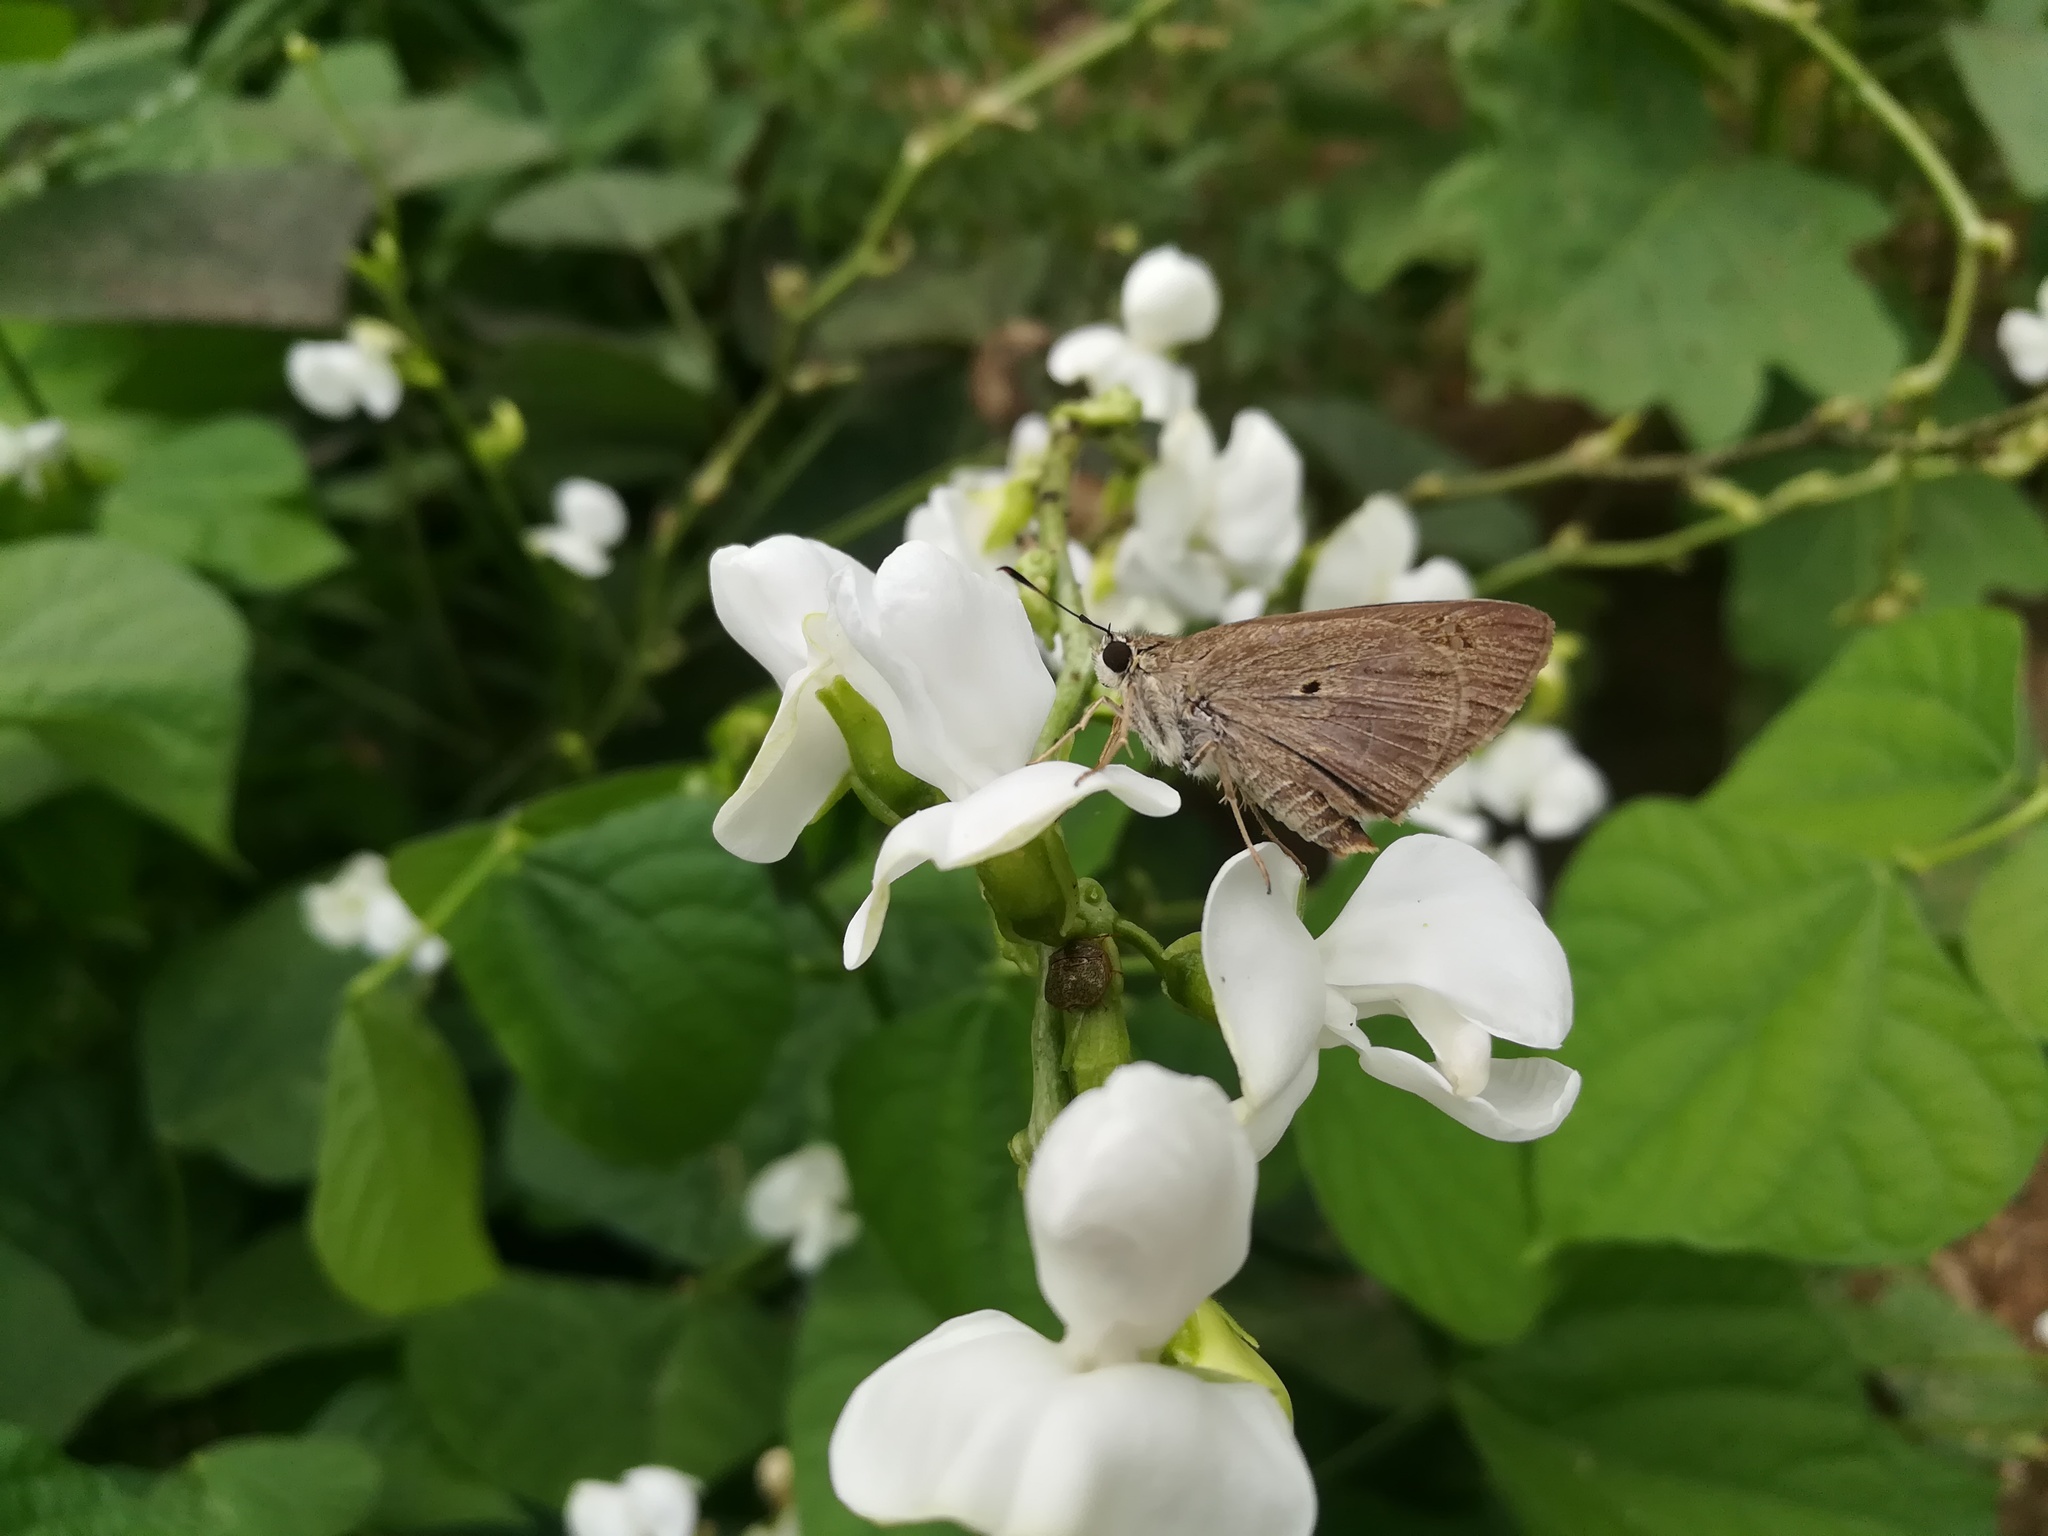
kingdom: Animalia
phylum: Arthropoda
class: Insecta
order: Lepidoptera
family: Hesperiidae
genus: Suastus
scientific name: Suastus gremius
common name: Indian palm bob
